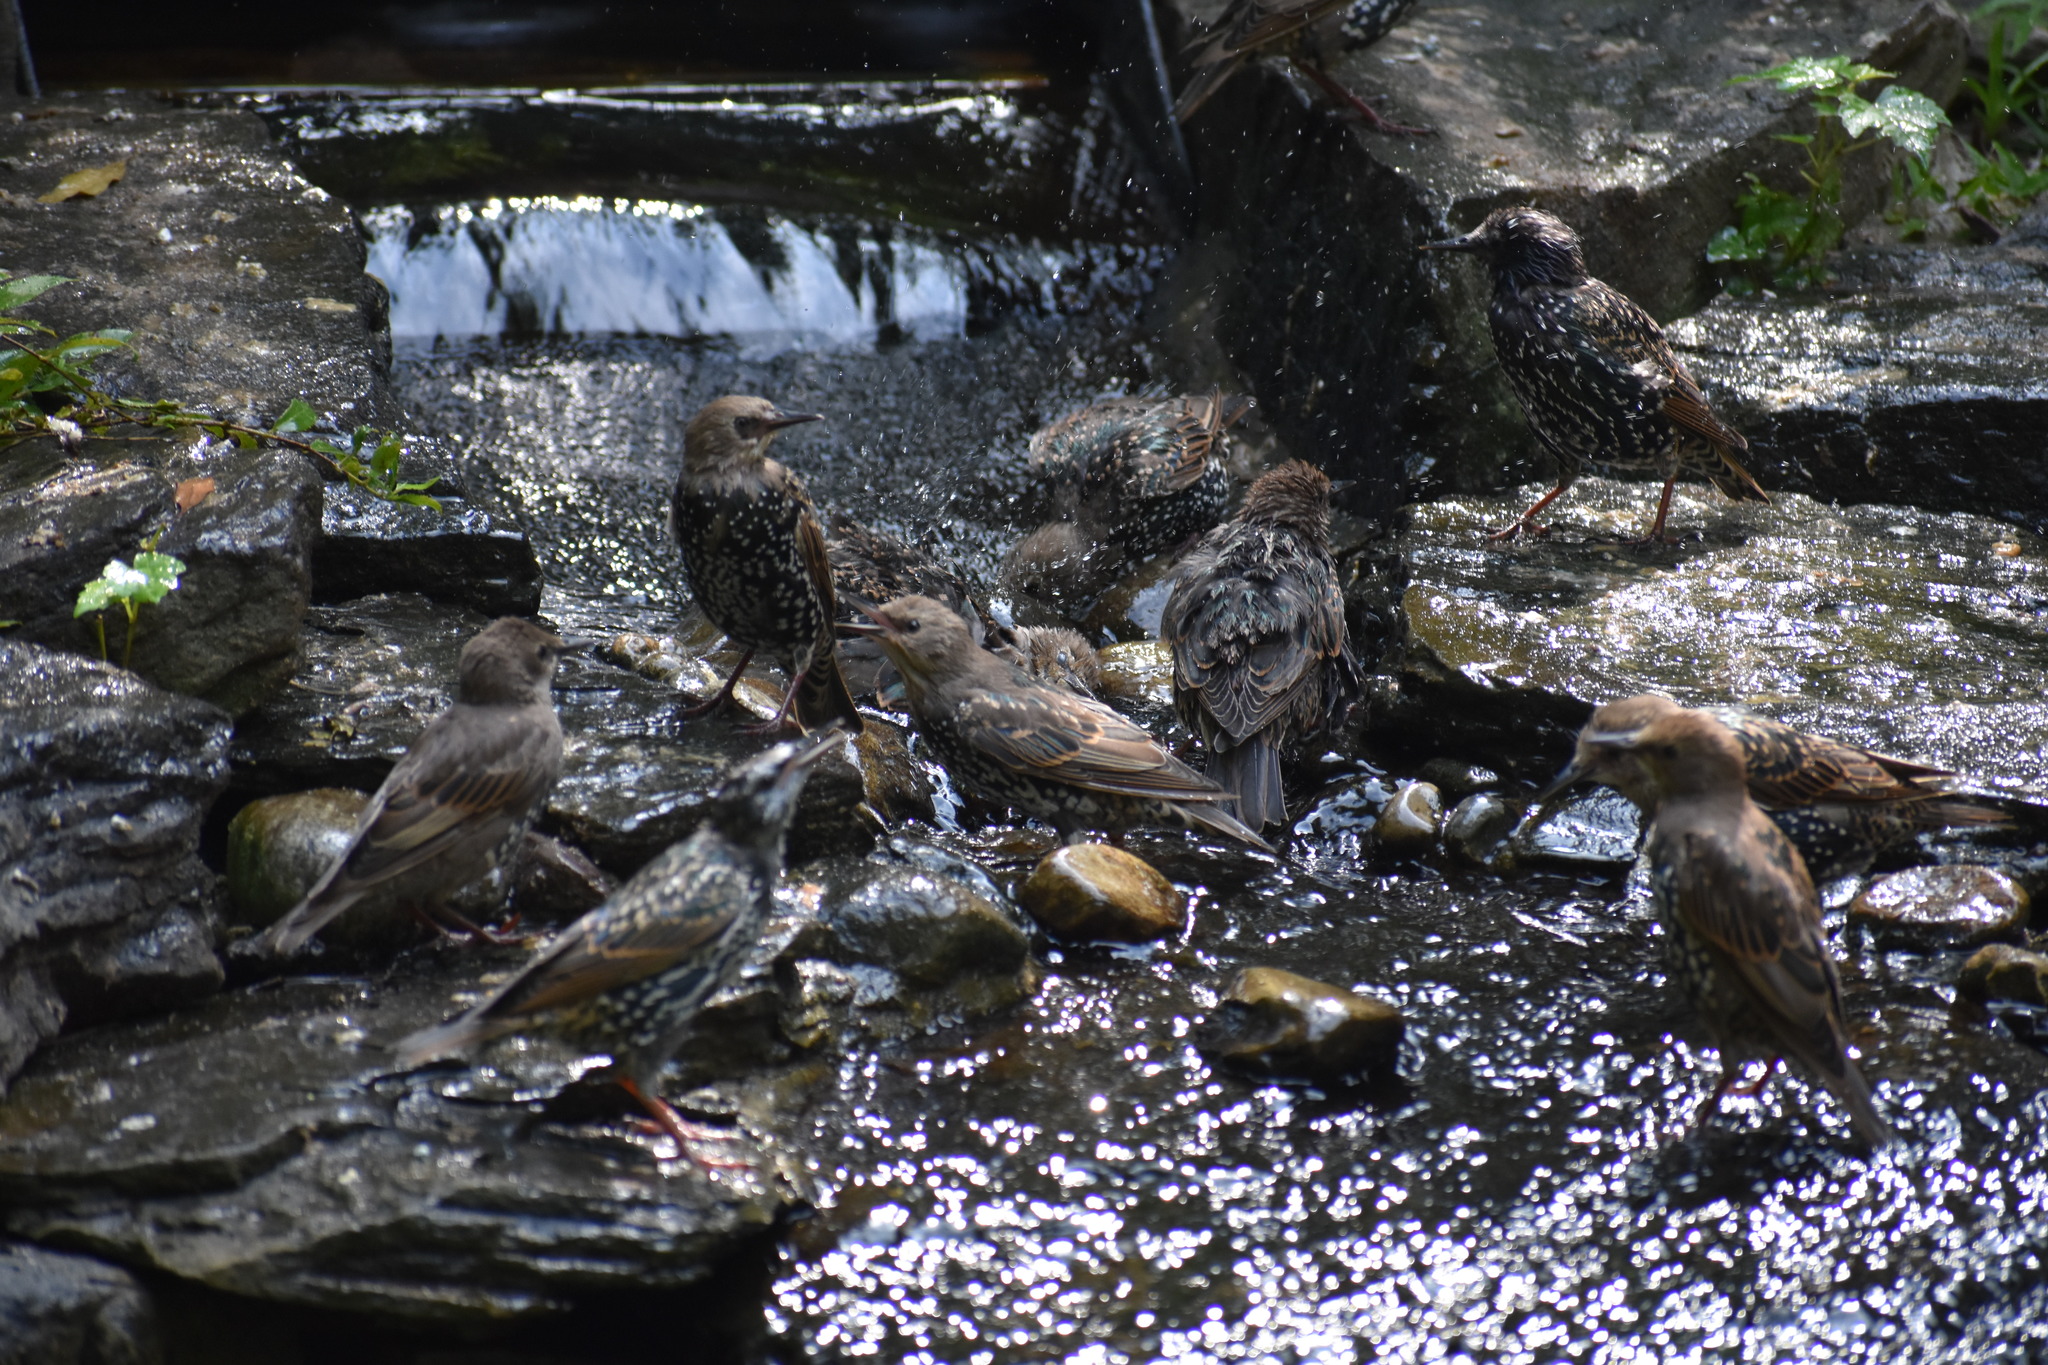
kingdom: Animalia
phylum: Chordata
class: Aves
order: Passeriformes
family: Sturnidae
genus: Sturnus
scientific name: Sturnus vulgaris
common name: Common starling
